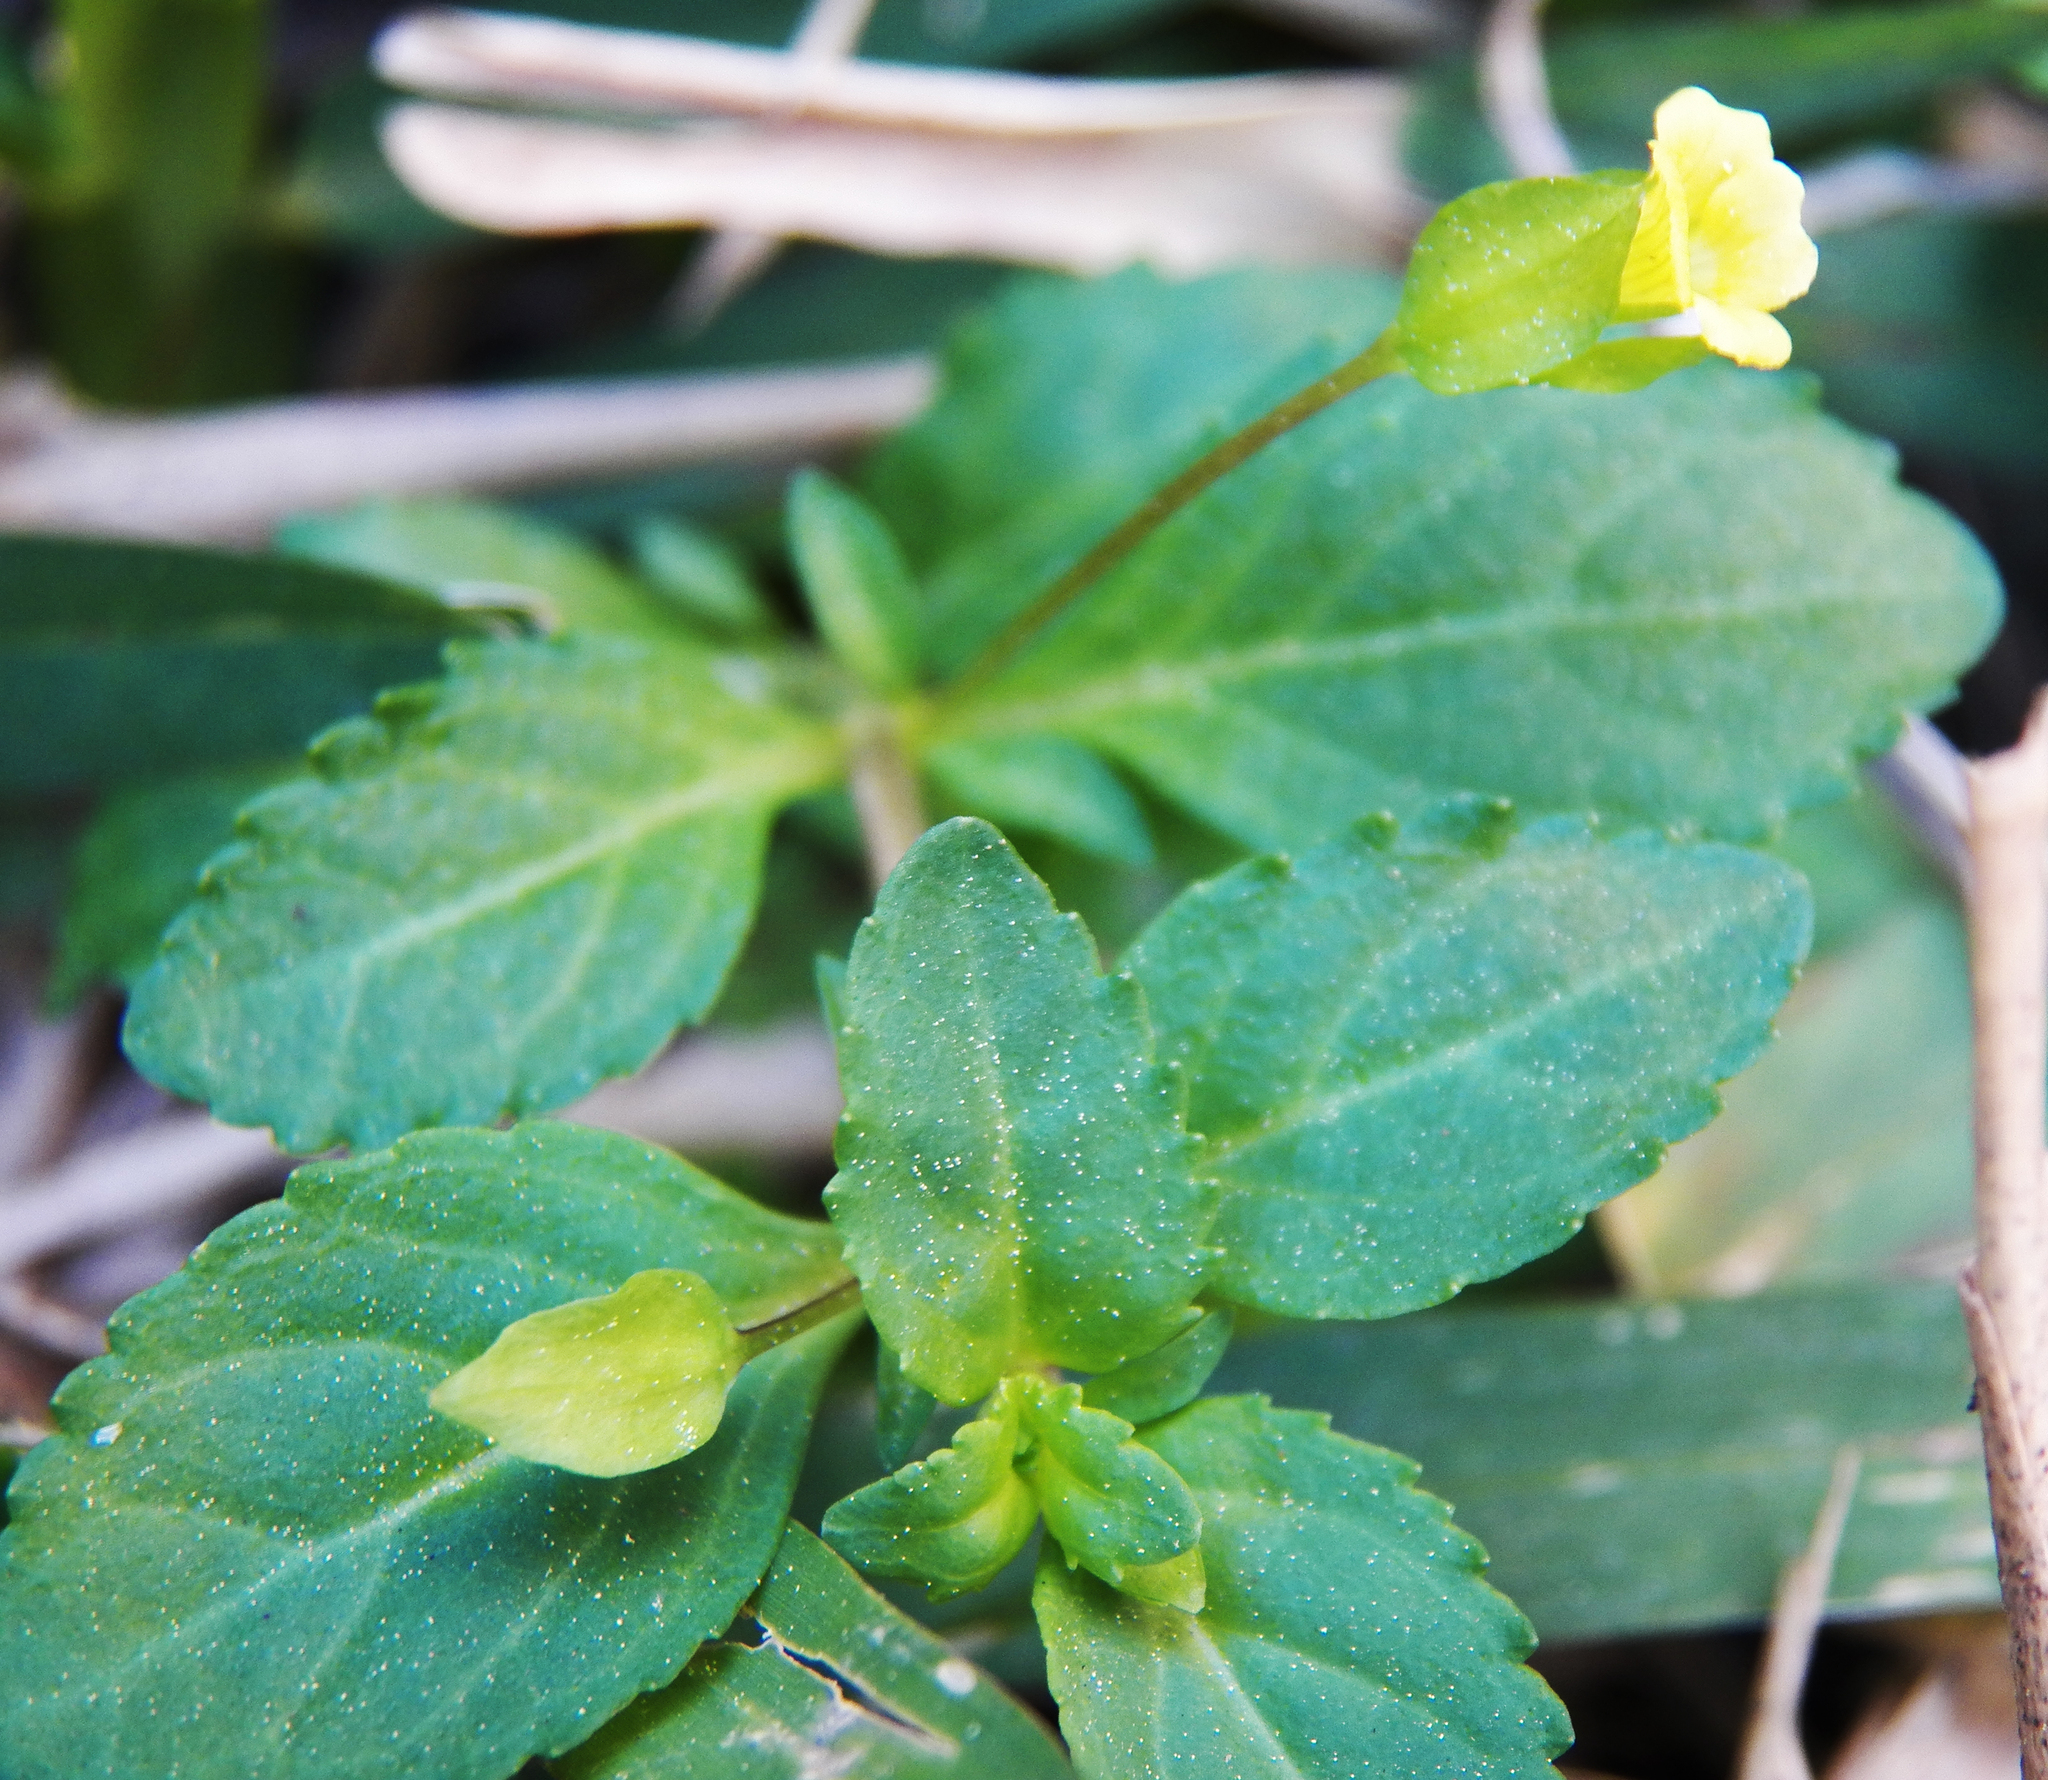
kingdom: Plantae
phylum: Tracheophyta
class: Magnoliopsida
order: Lamiales
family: Plantaginaceae
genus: Mecardonia
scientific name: Mecardonia procumbens
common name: Baby jump-up
